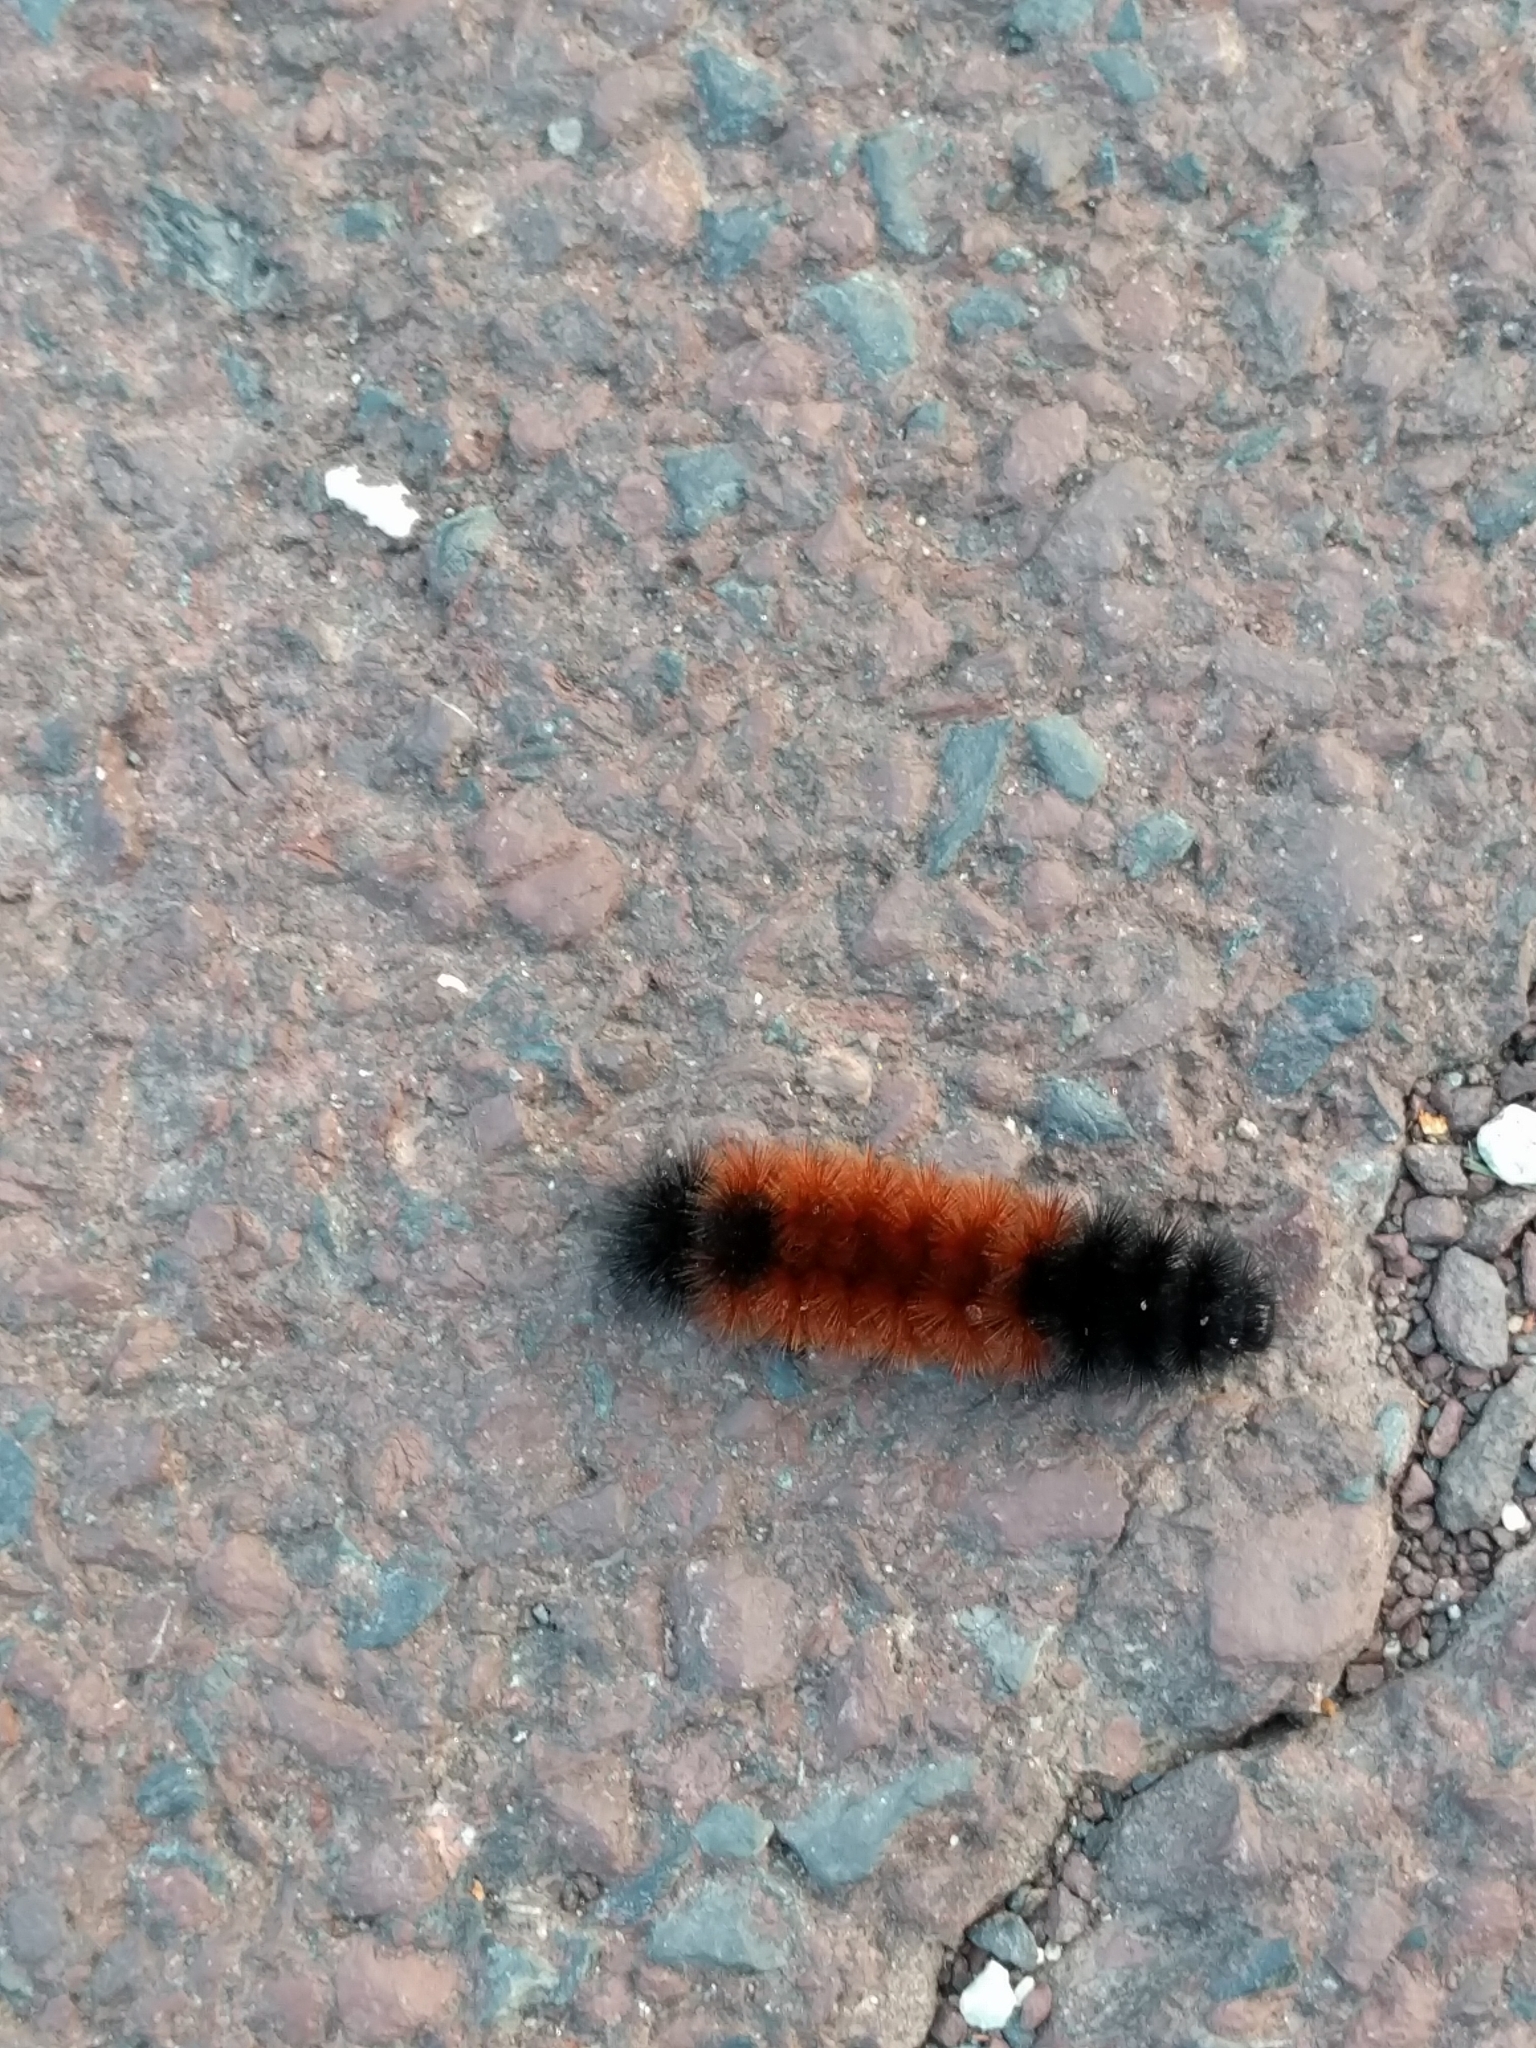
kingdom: Animalia
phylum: Arthropoda
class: Insecta
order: Lepidoptera
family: Erebidae
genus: Pyrrharctia
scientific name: Pyrrharctia isabella
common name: Isabella tiger moth
